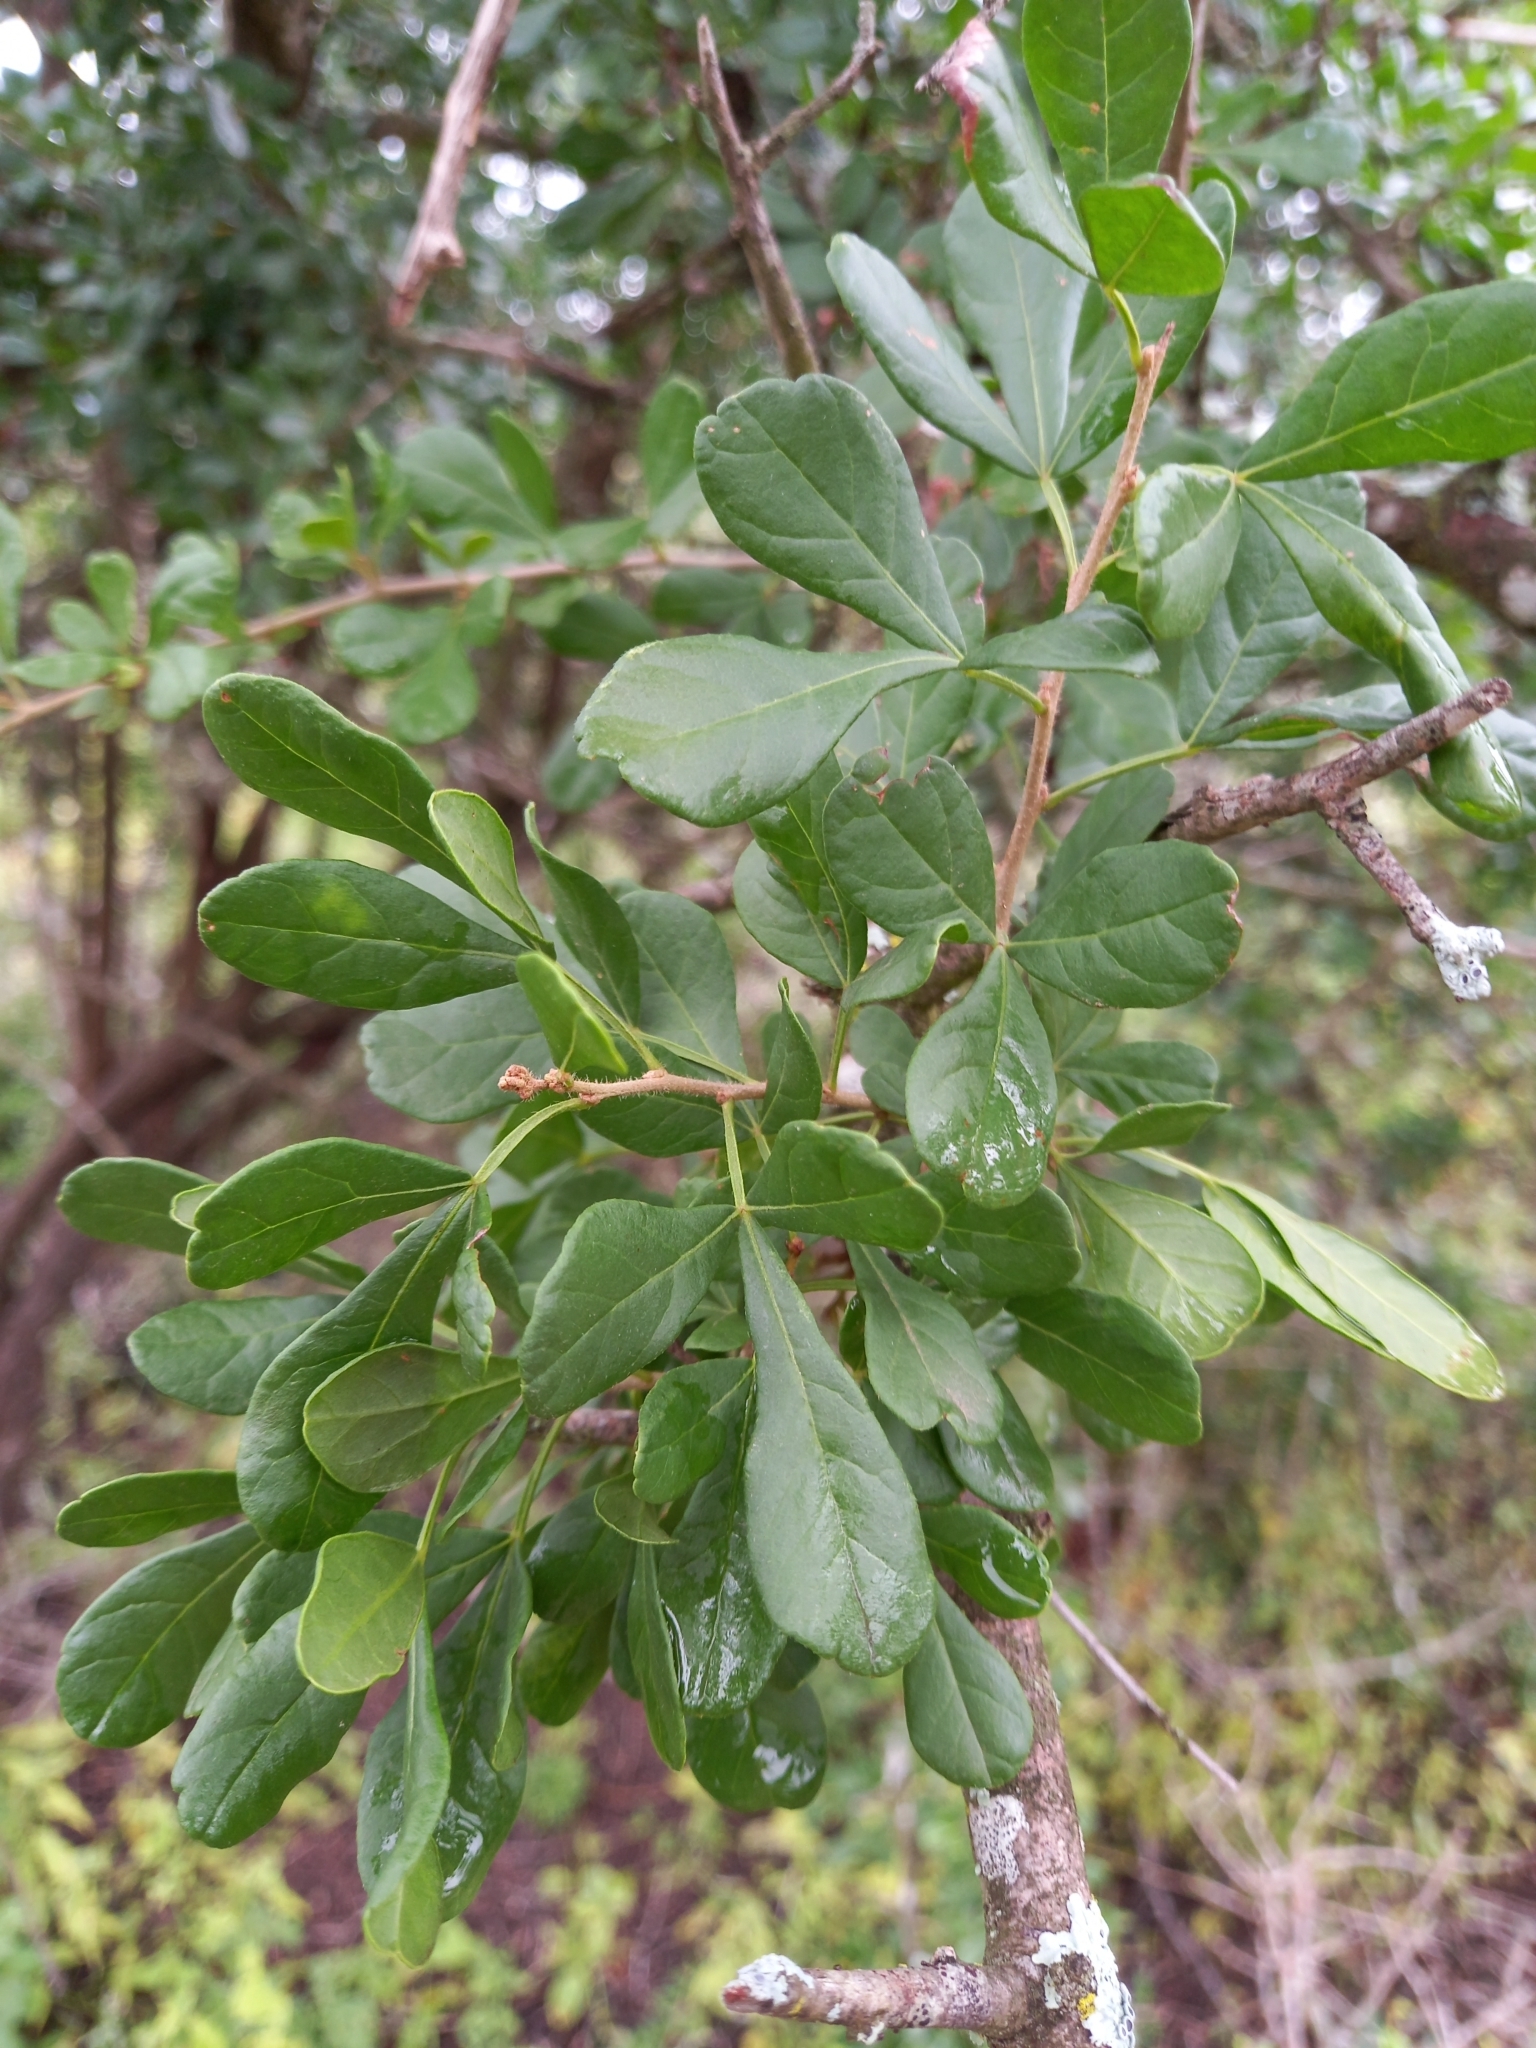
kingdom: Plantae
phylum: Tracheophyta
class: Magnoliopsida
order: Sapindales
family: Anacardiaceae
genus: Searsia
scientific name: Searsia refracta
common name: Thorny crow-berry
